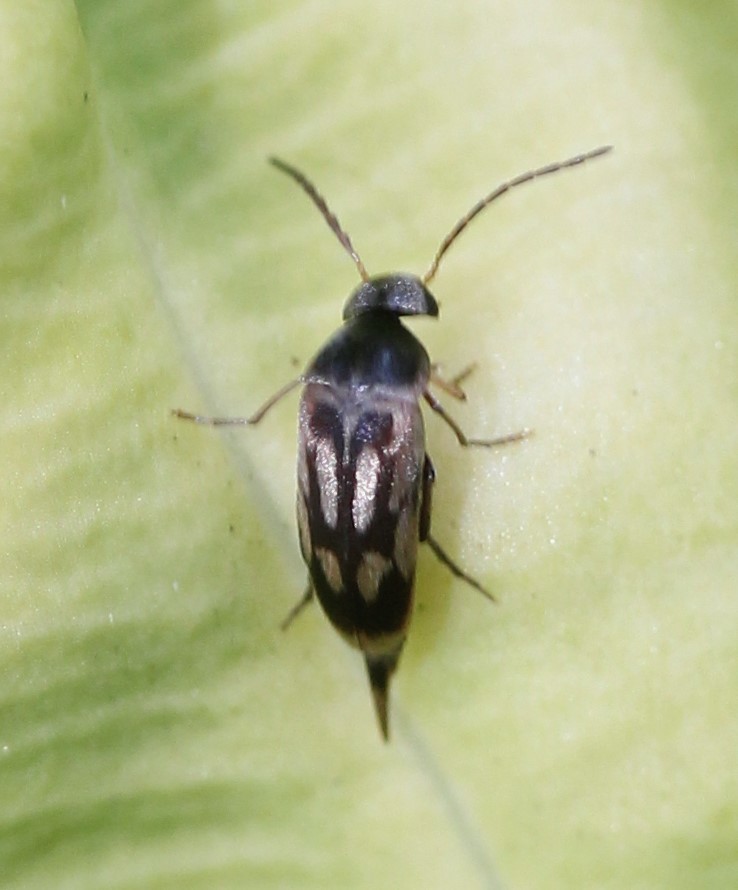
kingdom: Animalia
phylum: Arthropoda
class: Insecta
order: Coleoptera
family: Mordellidae
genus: Falsomordellistena
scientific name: Falsomordellistena bihamata
